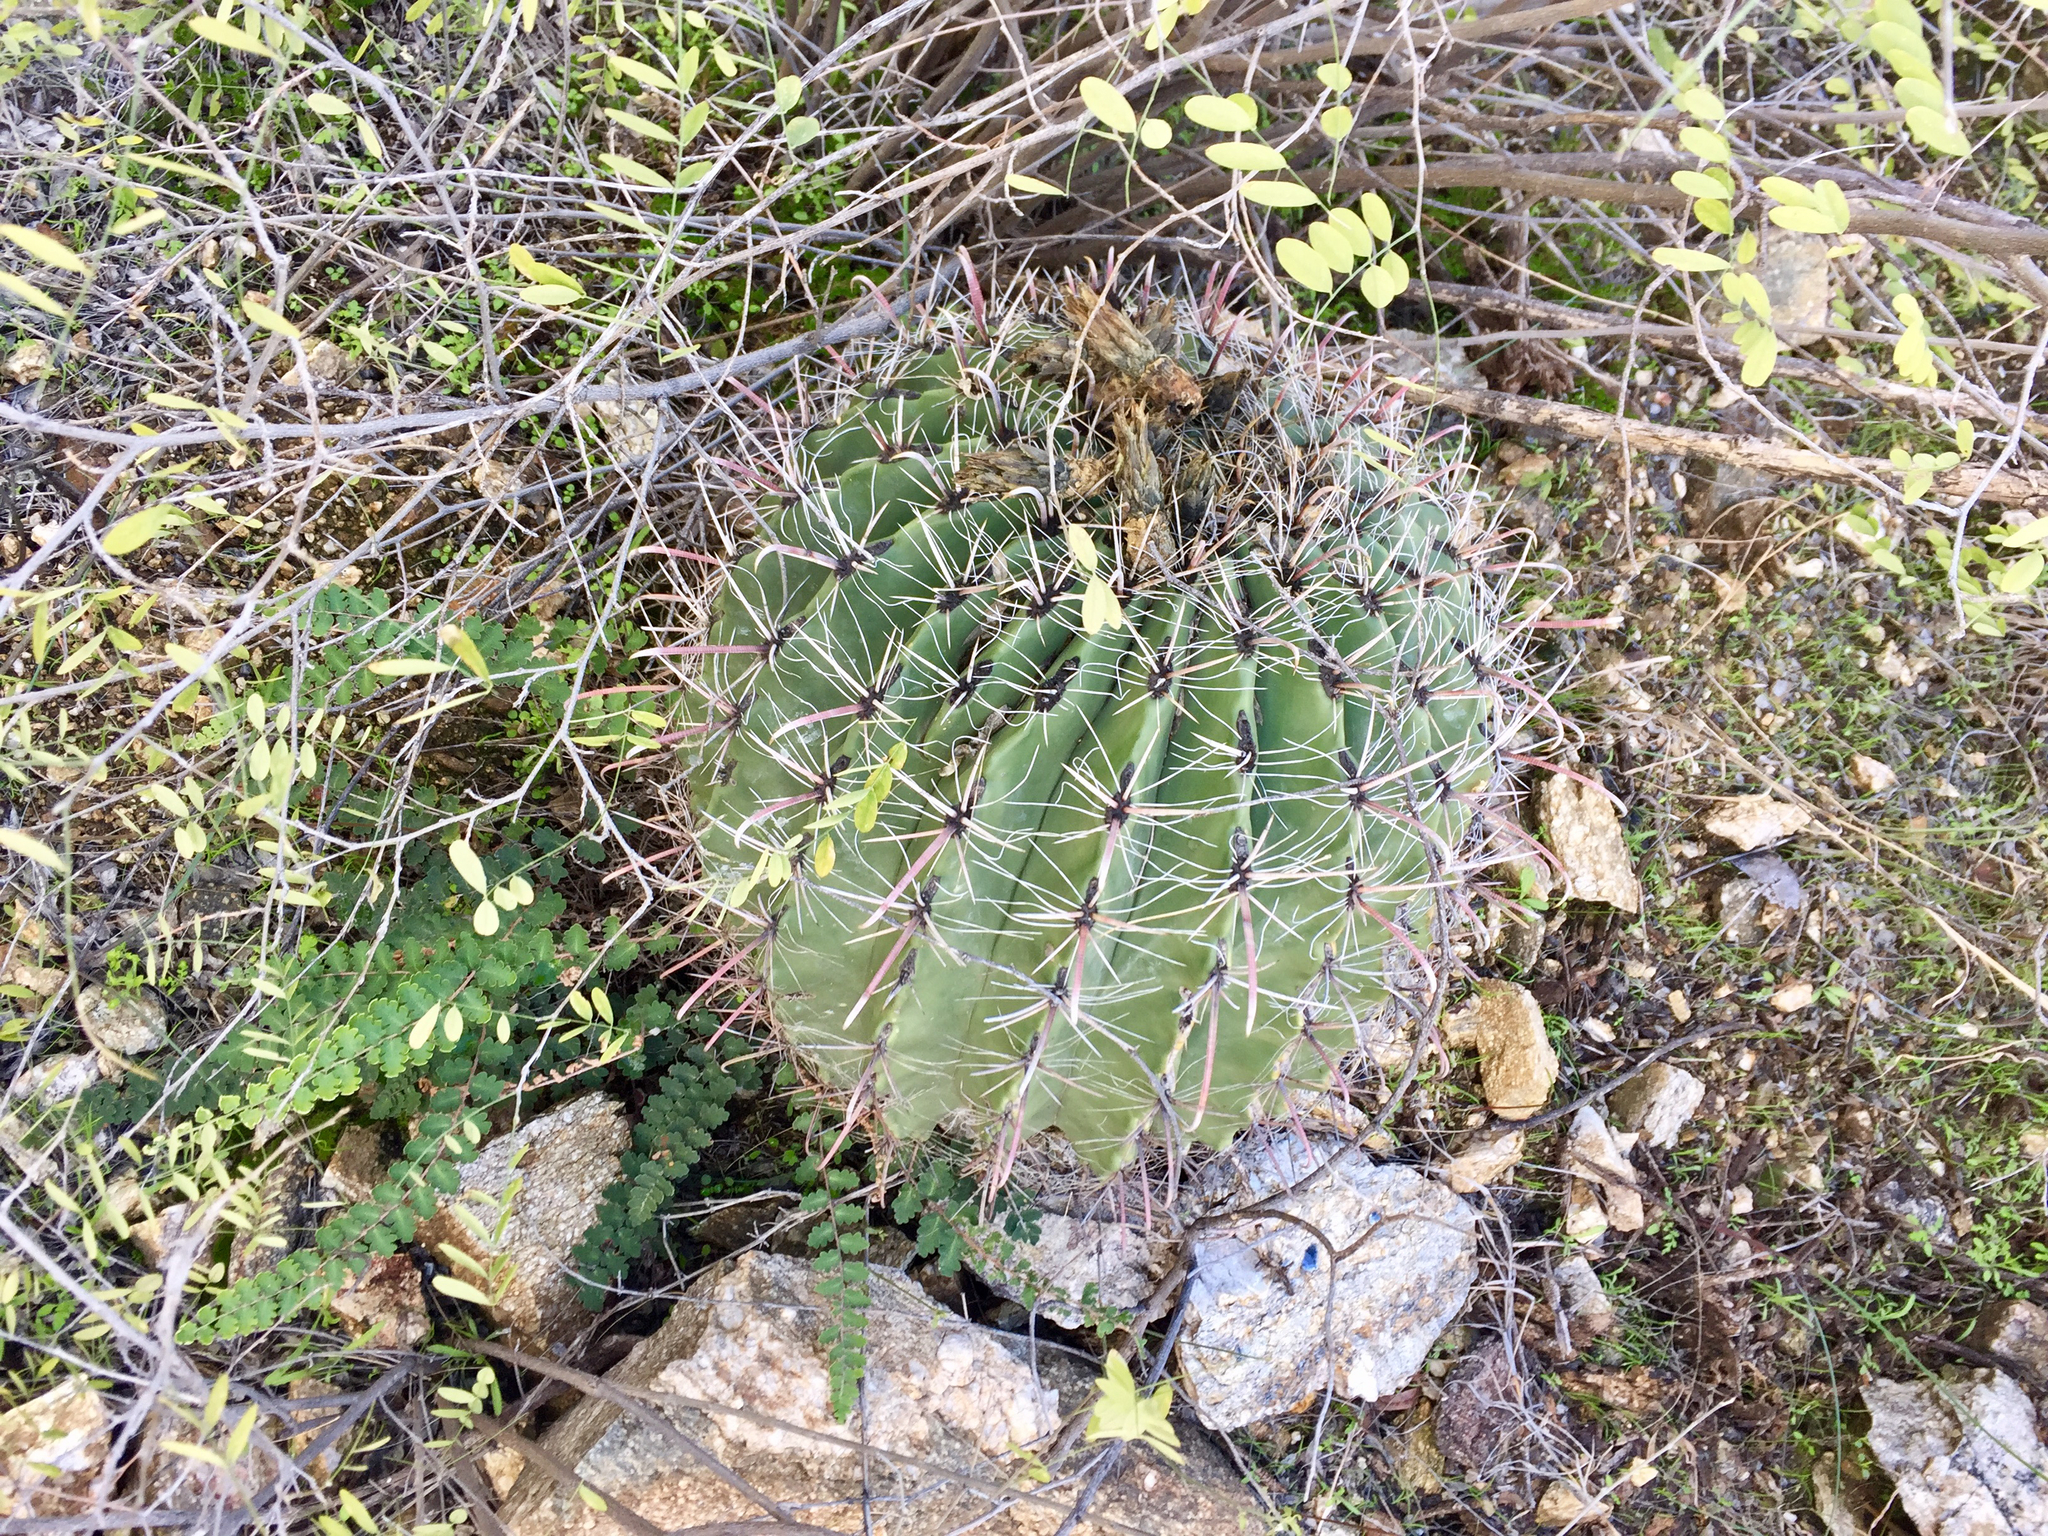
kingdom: Plantae
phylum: Tracheophyta
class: Magnoliopsida
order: Caryophyllales
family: Cactaceae
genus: Ferocactus
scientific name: Ferocactus wislizeni
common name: Candy barrel cactus
